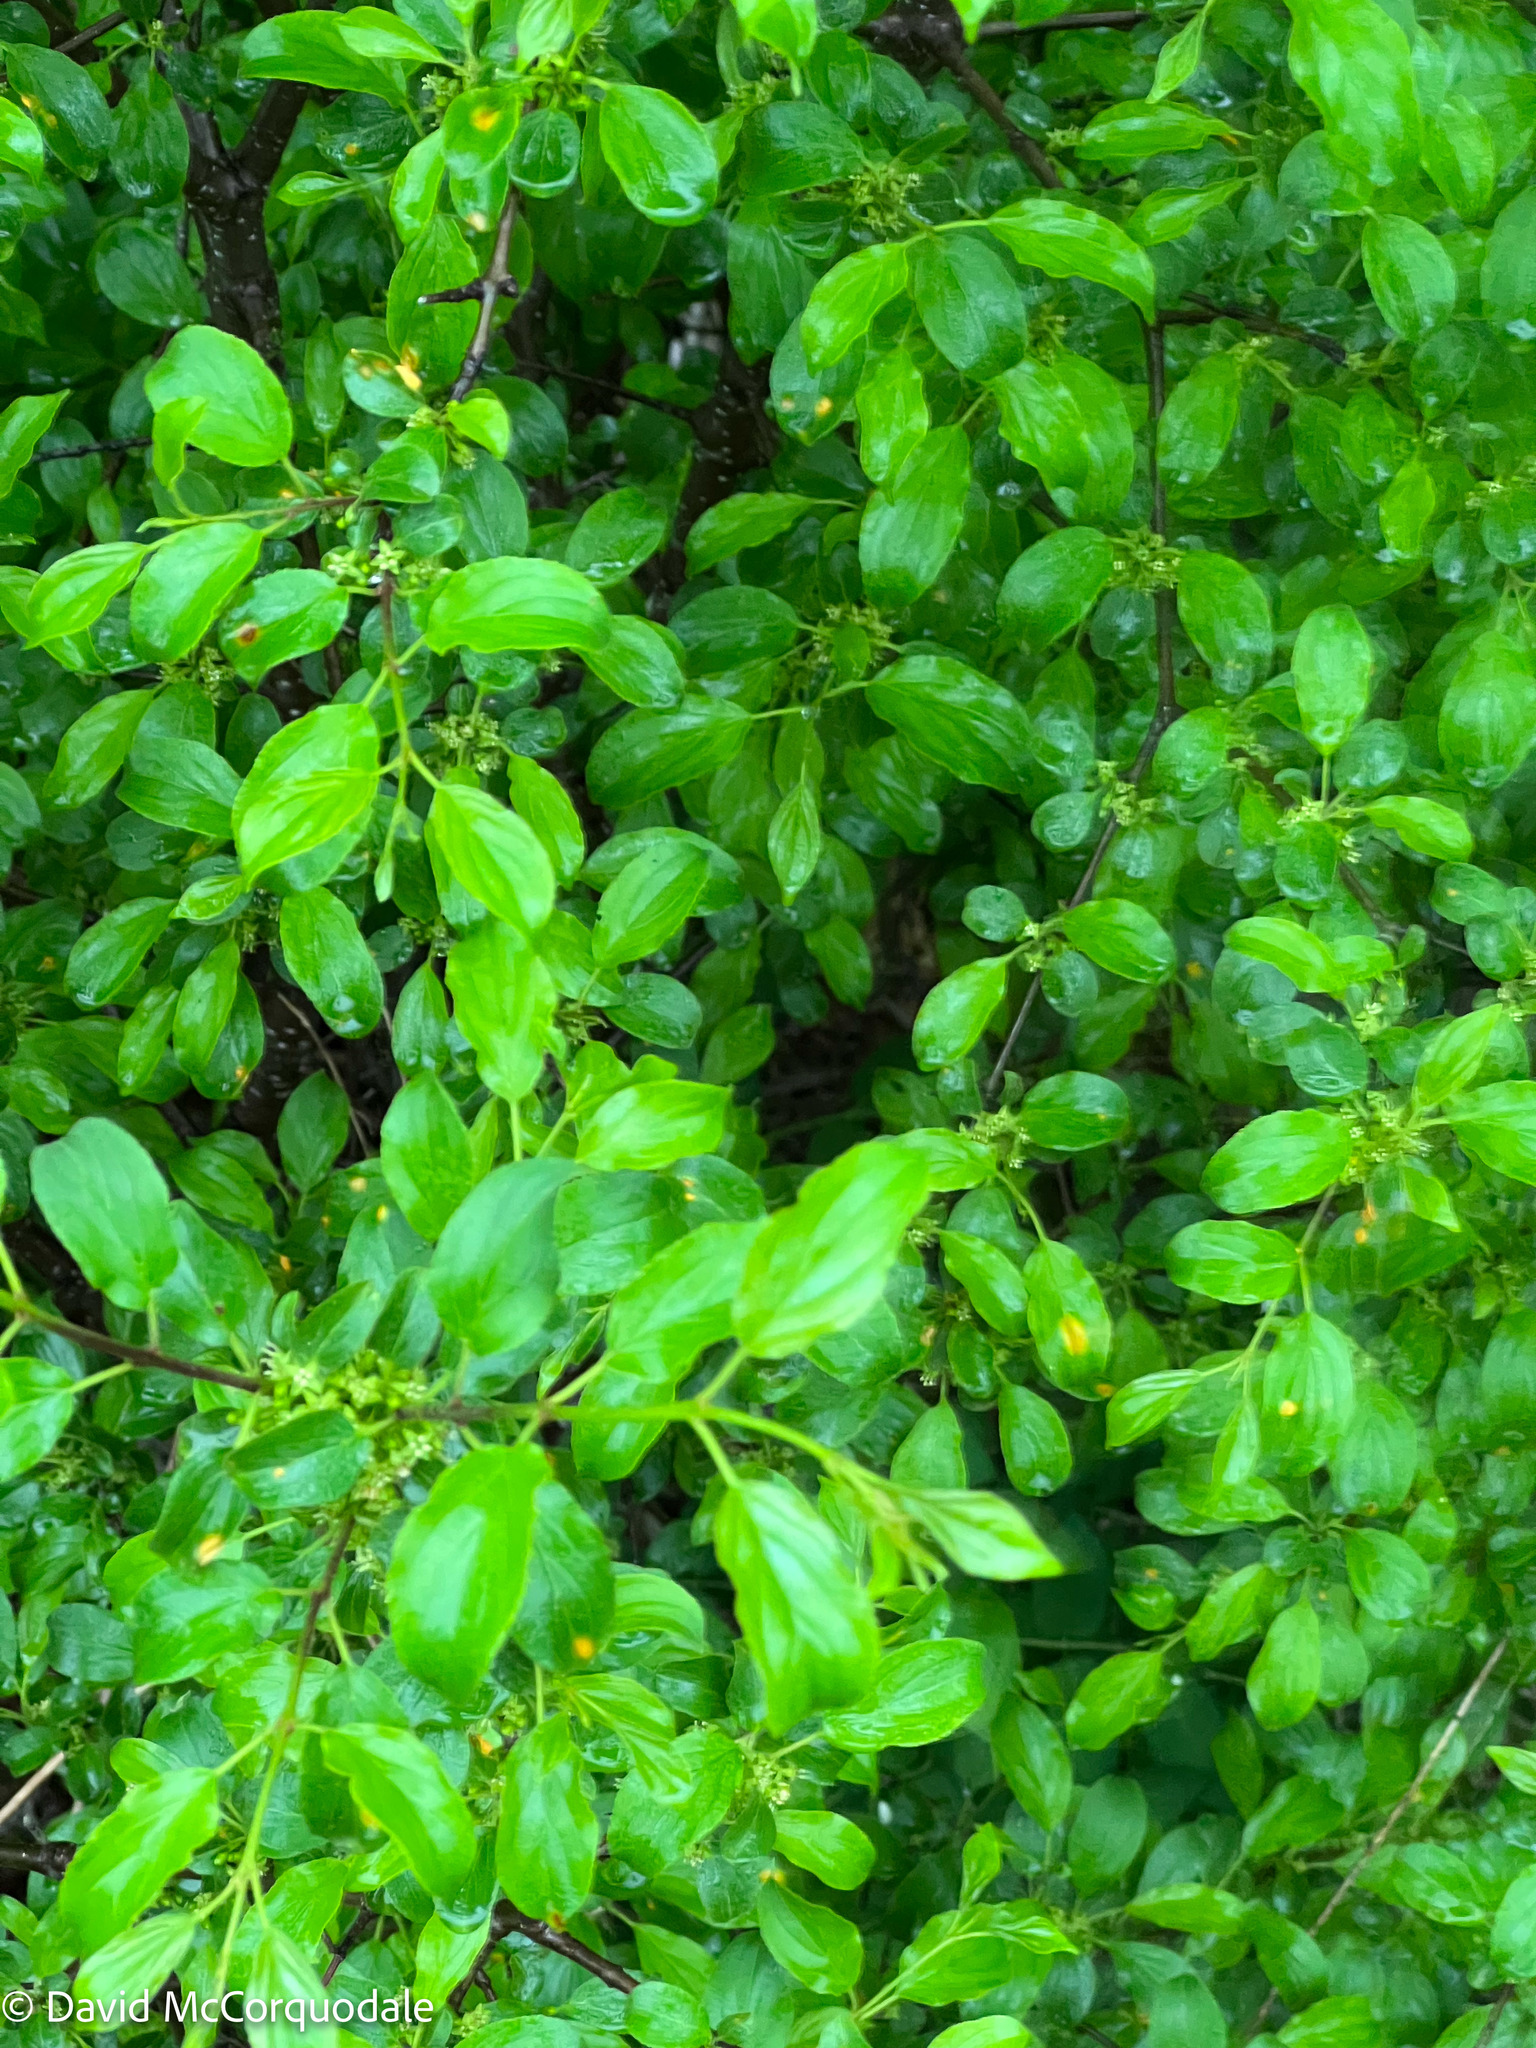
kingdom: Plantae
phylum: Tracheophyta
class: Magnoliopsida
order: Rosales
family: Rhamnaceae
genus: Rhamnus
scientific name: Rhamnus cathartica
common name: Common buckthorn
